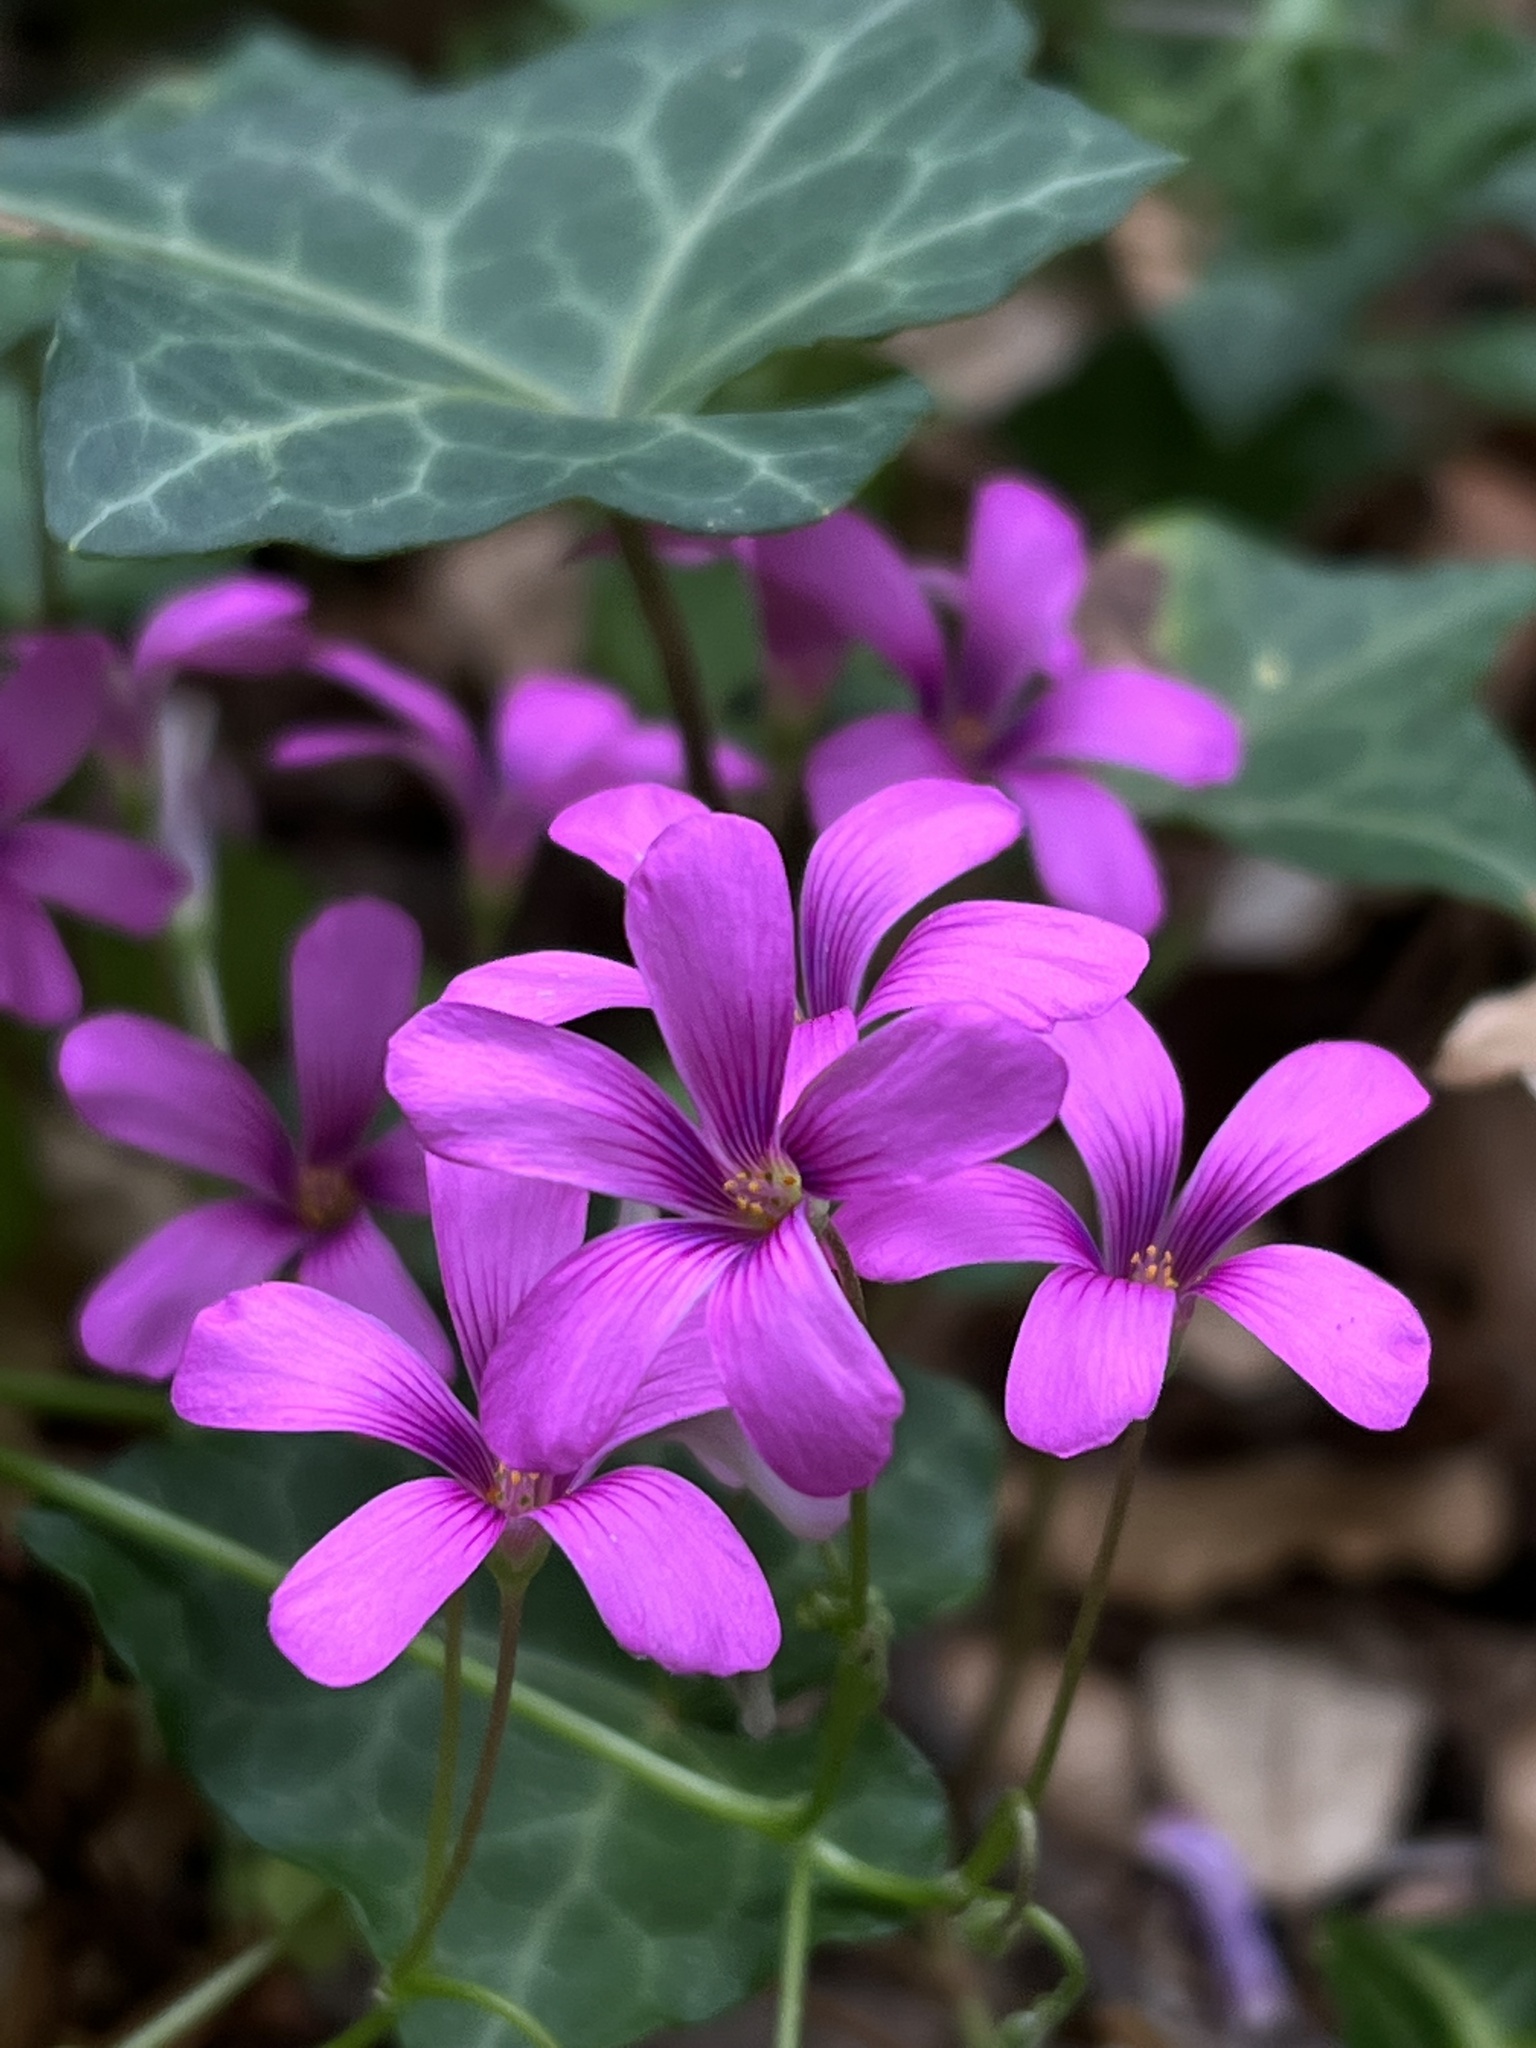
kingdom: Plantae
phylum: Tracheophyta
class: Magnoliopsida
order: Oxalidales
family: Oxalidaceae
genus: Oxalis
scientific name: Oxalis articulata
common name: Pink-sorrel
